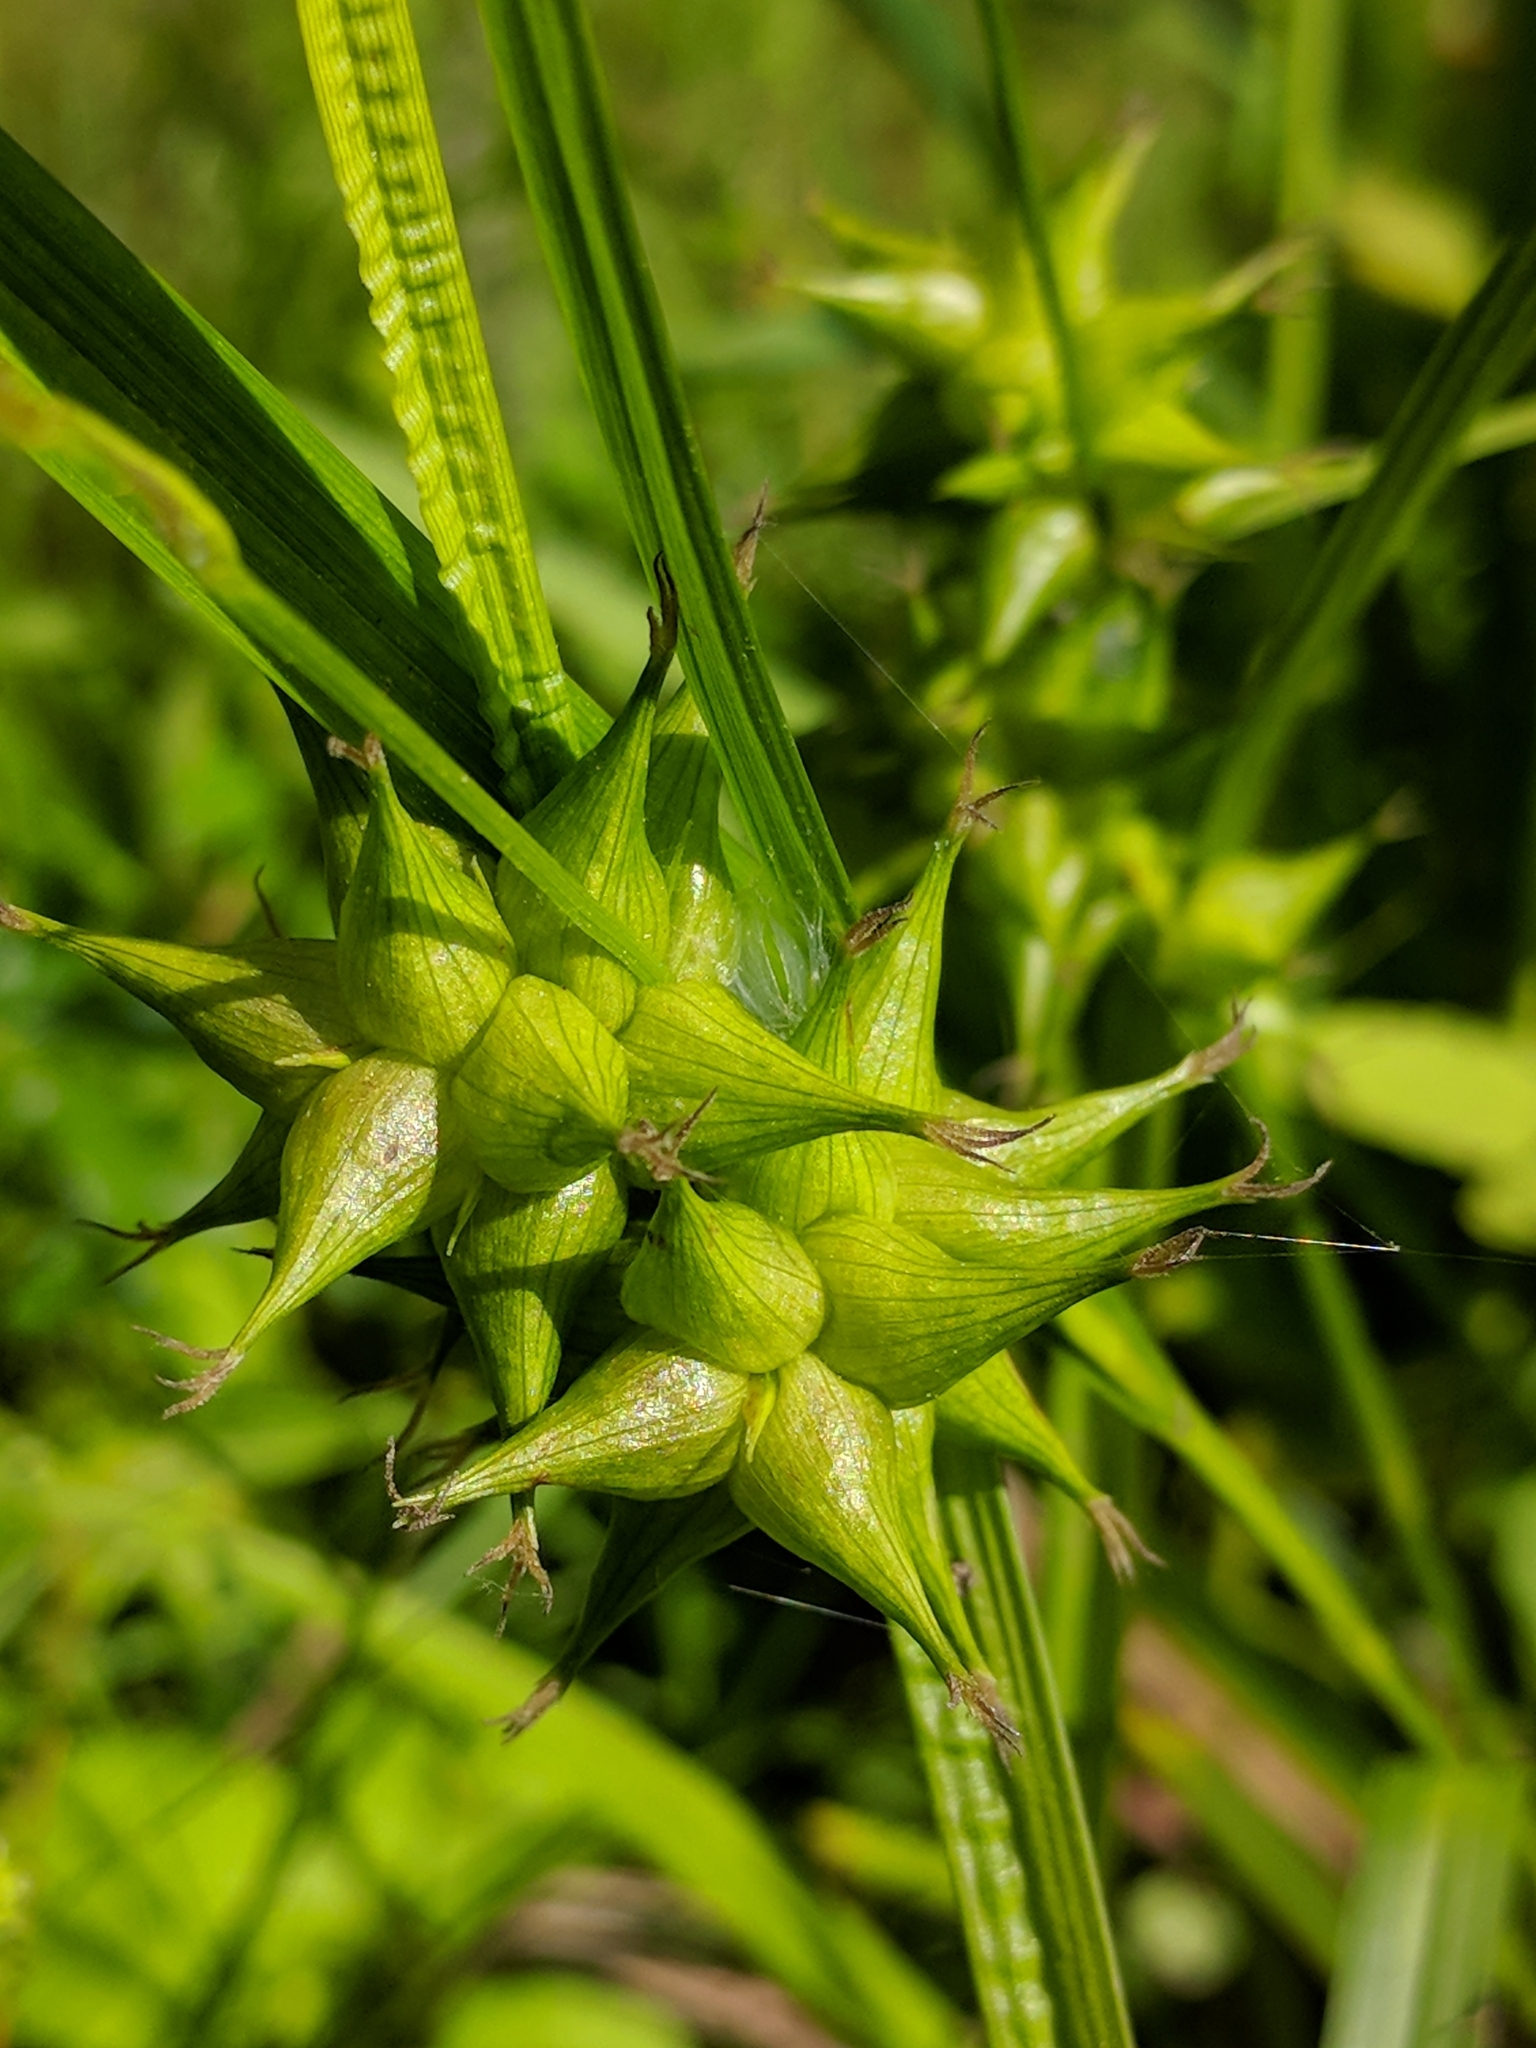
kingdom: Plantae
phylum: Tracheophyta
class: Liliopsida
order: Poales
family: Cyperaceae
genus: Carex
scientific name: Carex intumescens
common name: Greater bladder sedge
